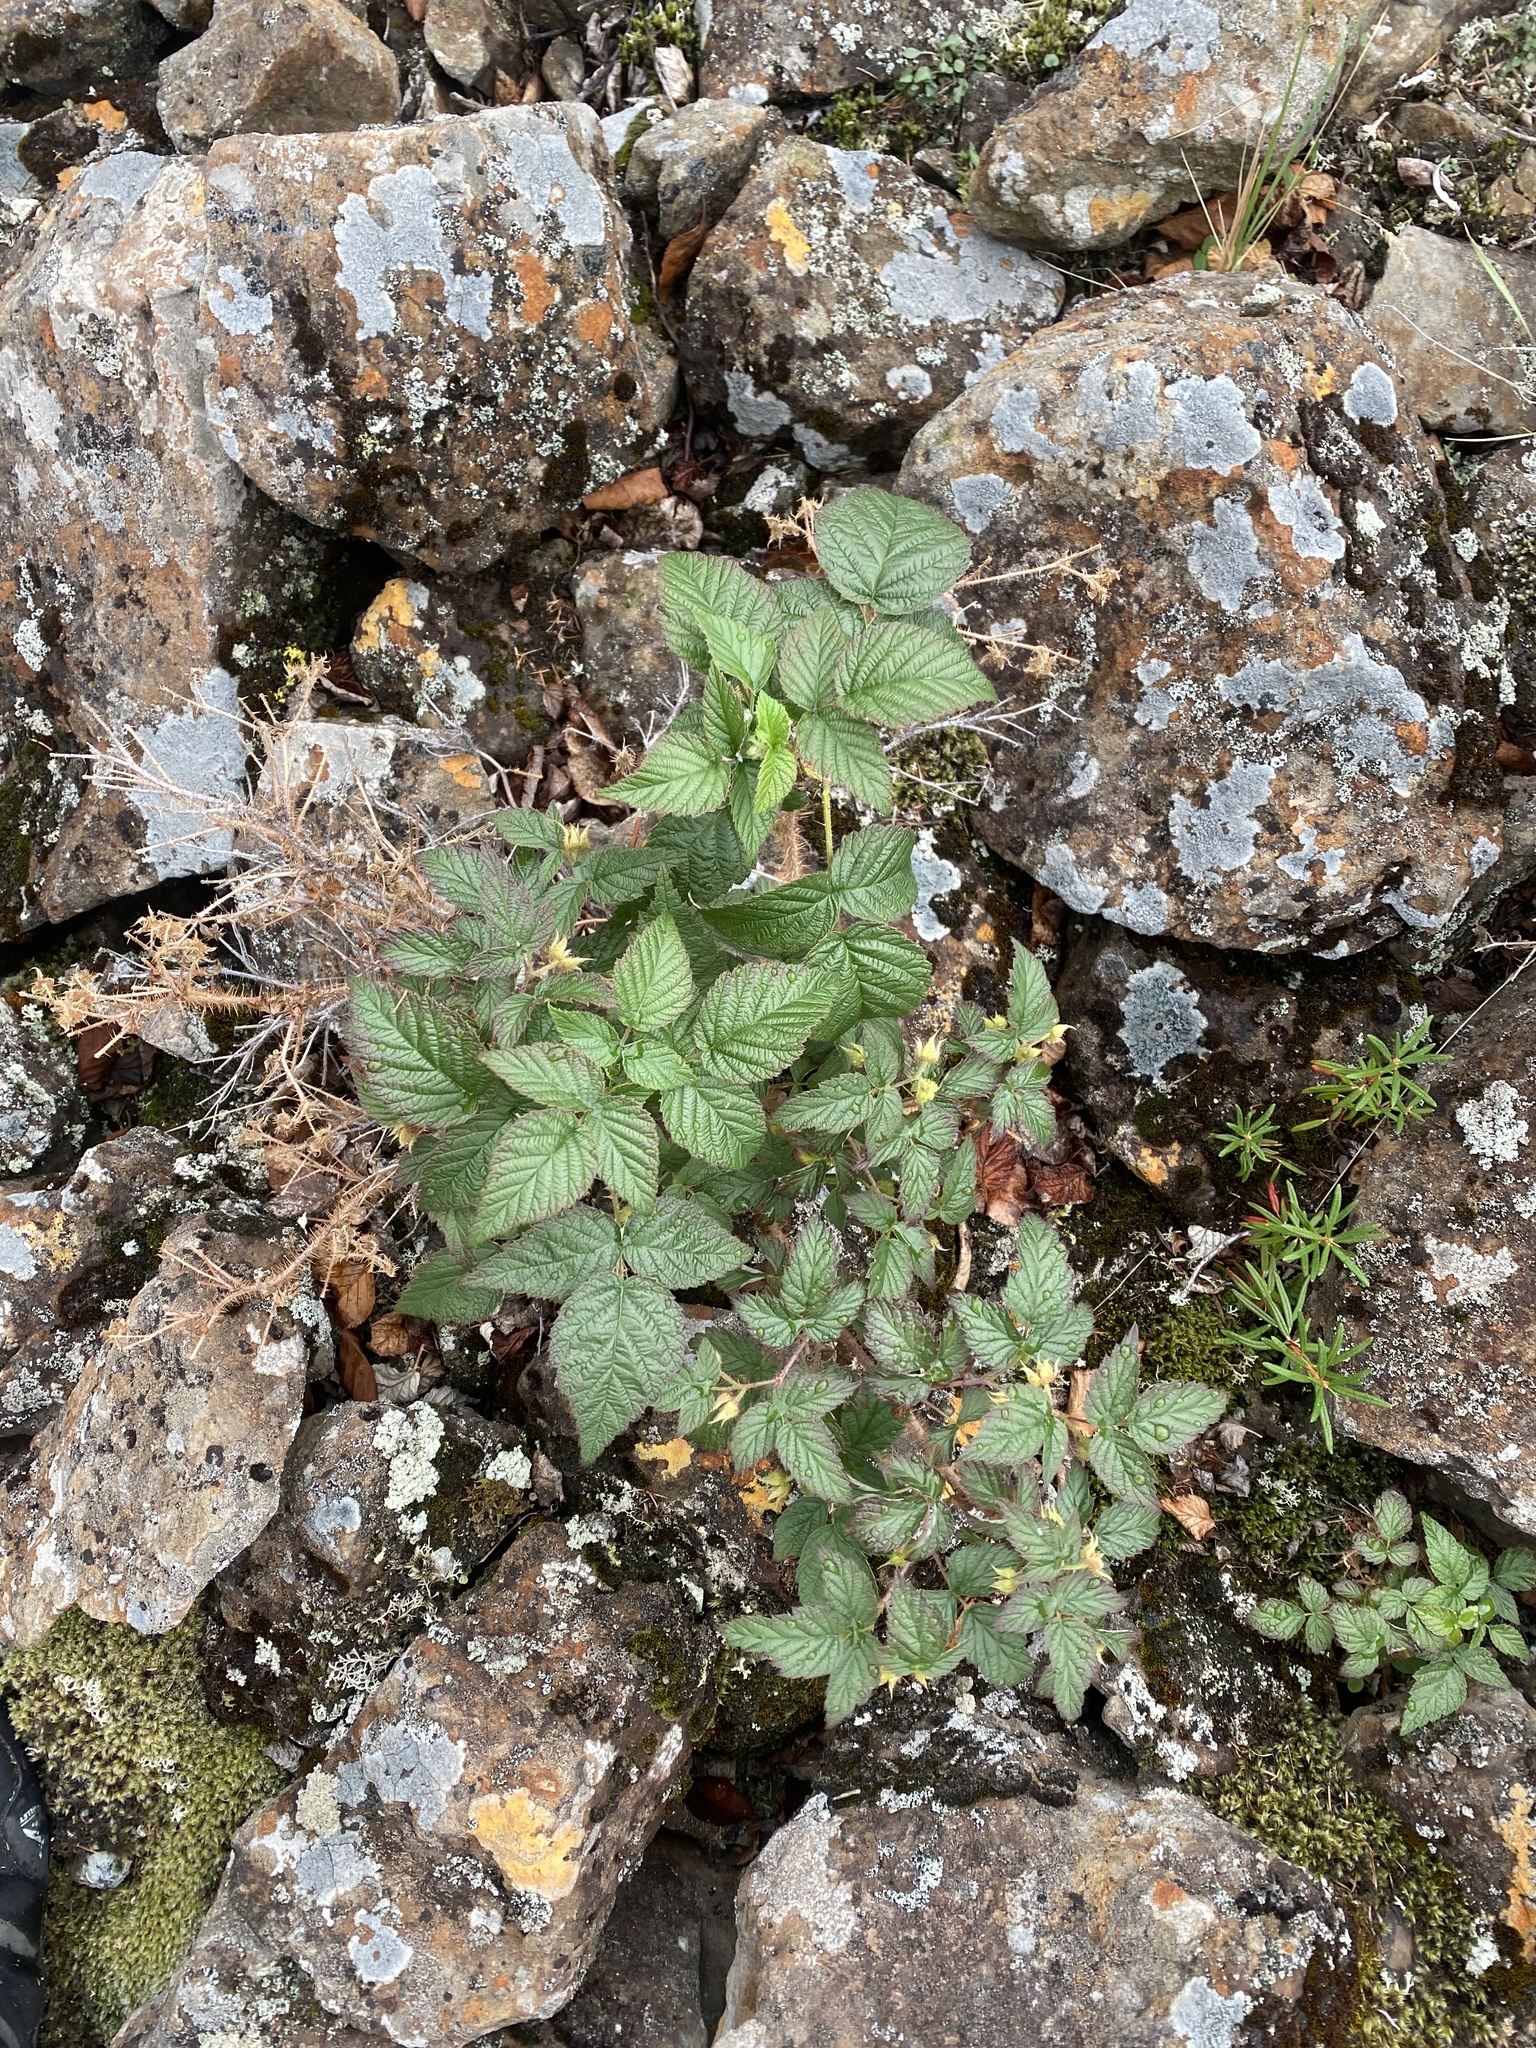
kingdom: Plantae
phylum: Tracheophyta
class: Magnoliopsida
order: Rosales
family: Rosaceae
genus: Rubus
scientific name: Rubus sachalinensis
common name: Red raspberry
